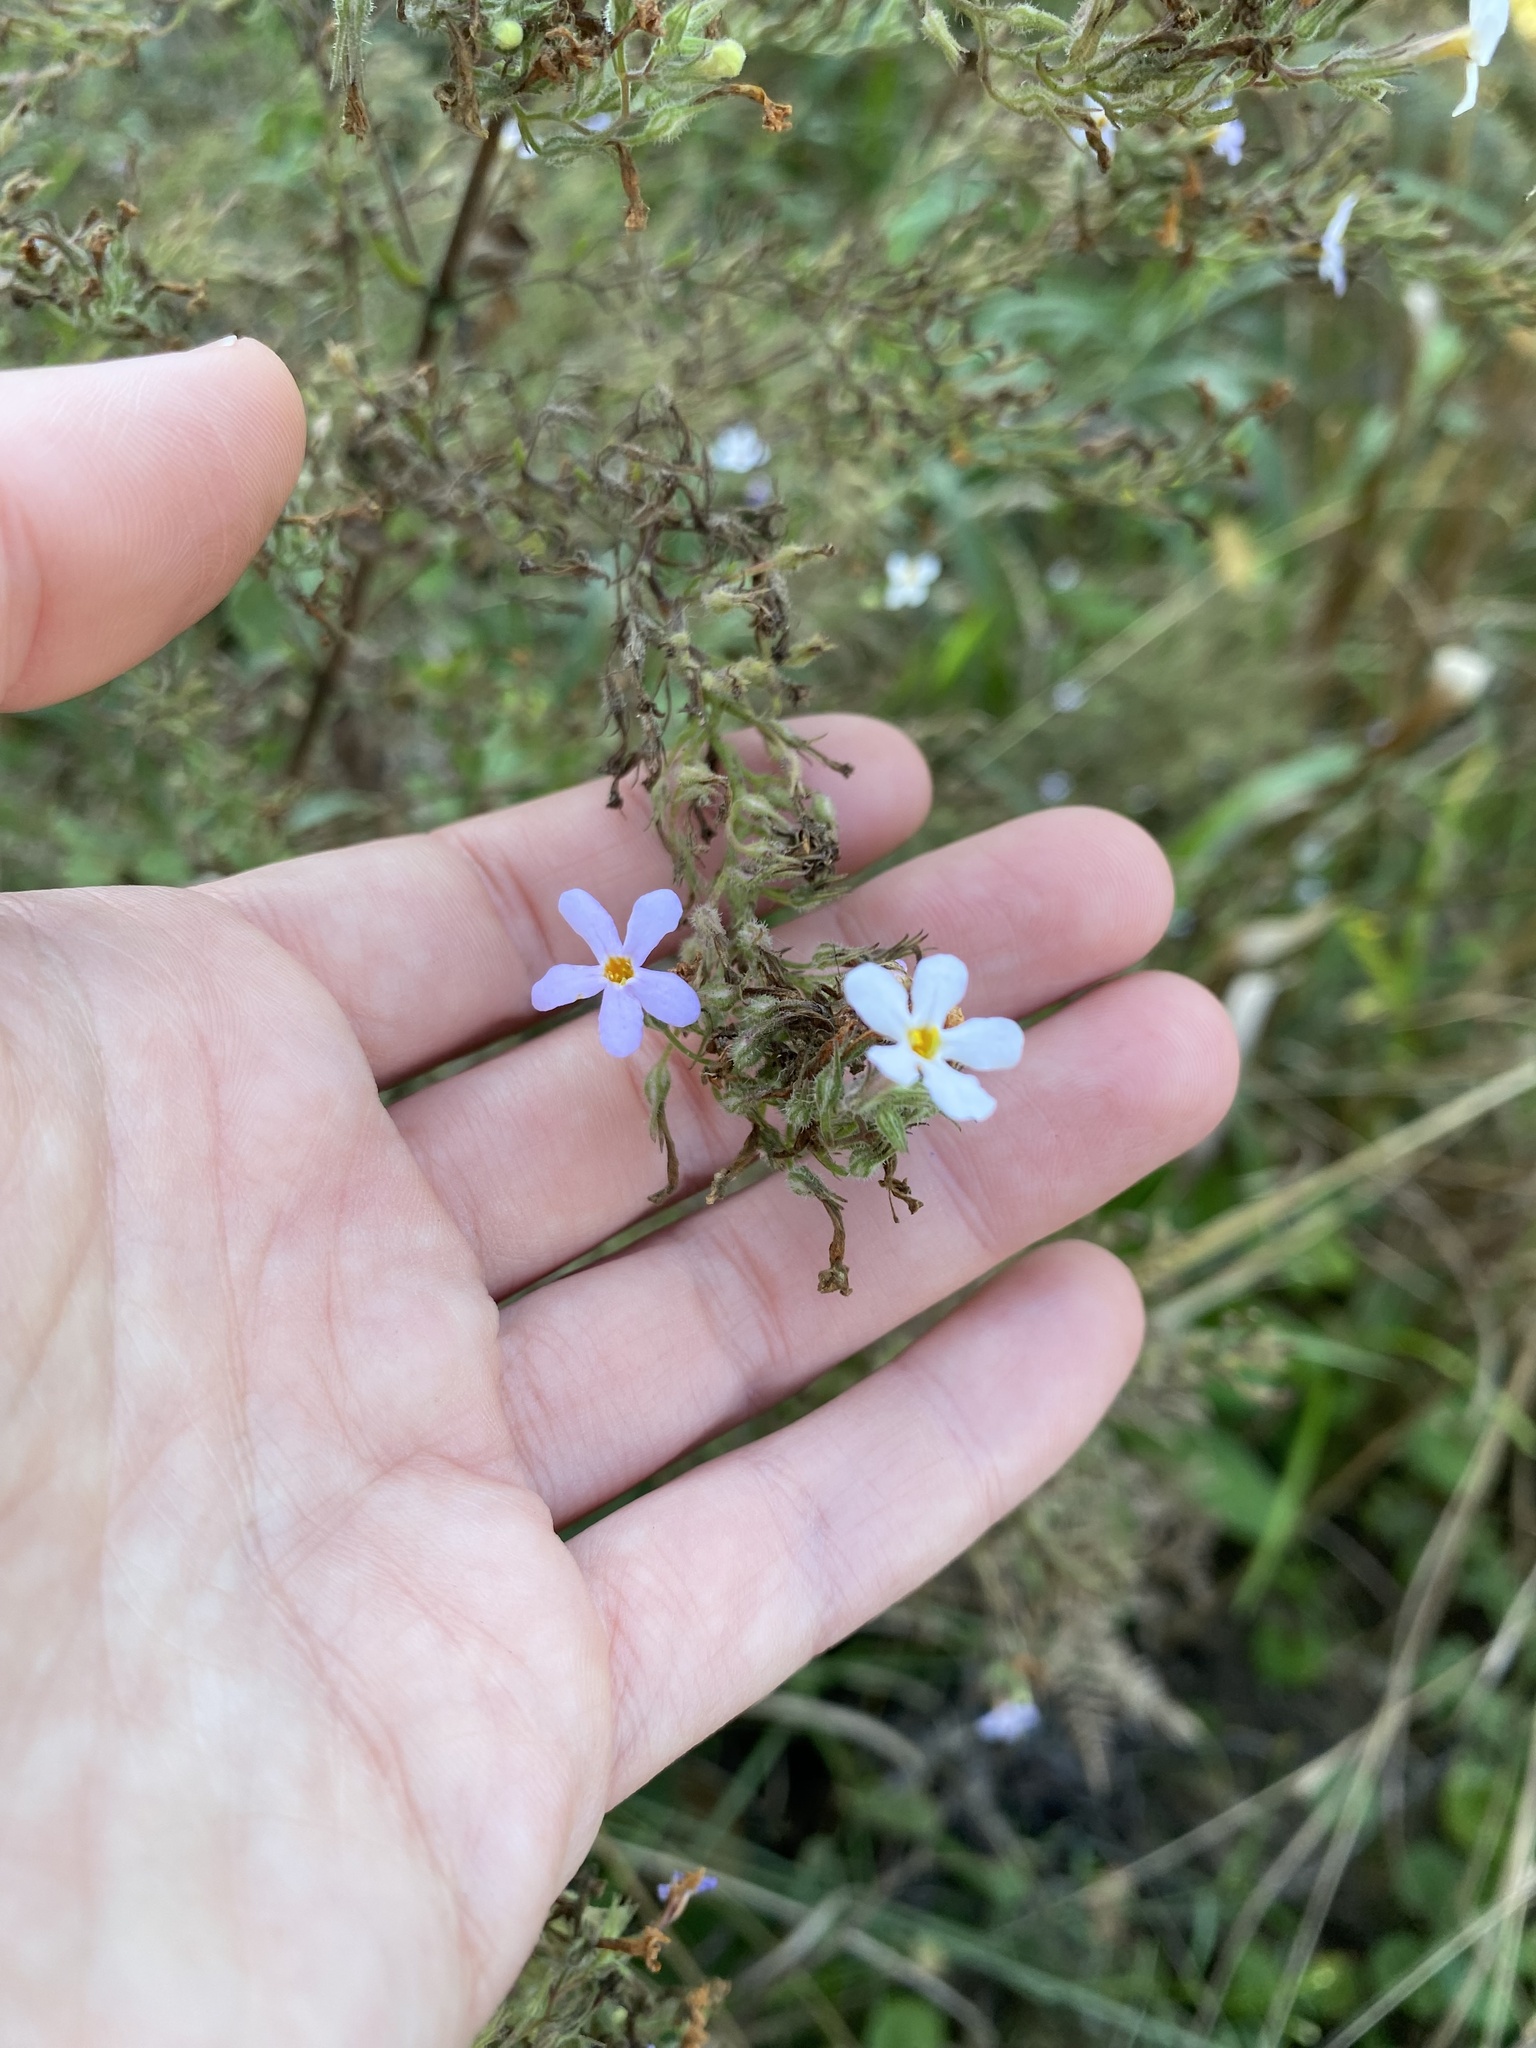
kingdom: Plantae
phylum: Tracheophyta
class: Magnoliopsida
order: Lamiales
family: Scrophulariaceae
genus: Chaenostoma
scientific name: Chaenostoma floribundum
